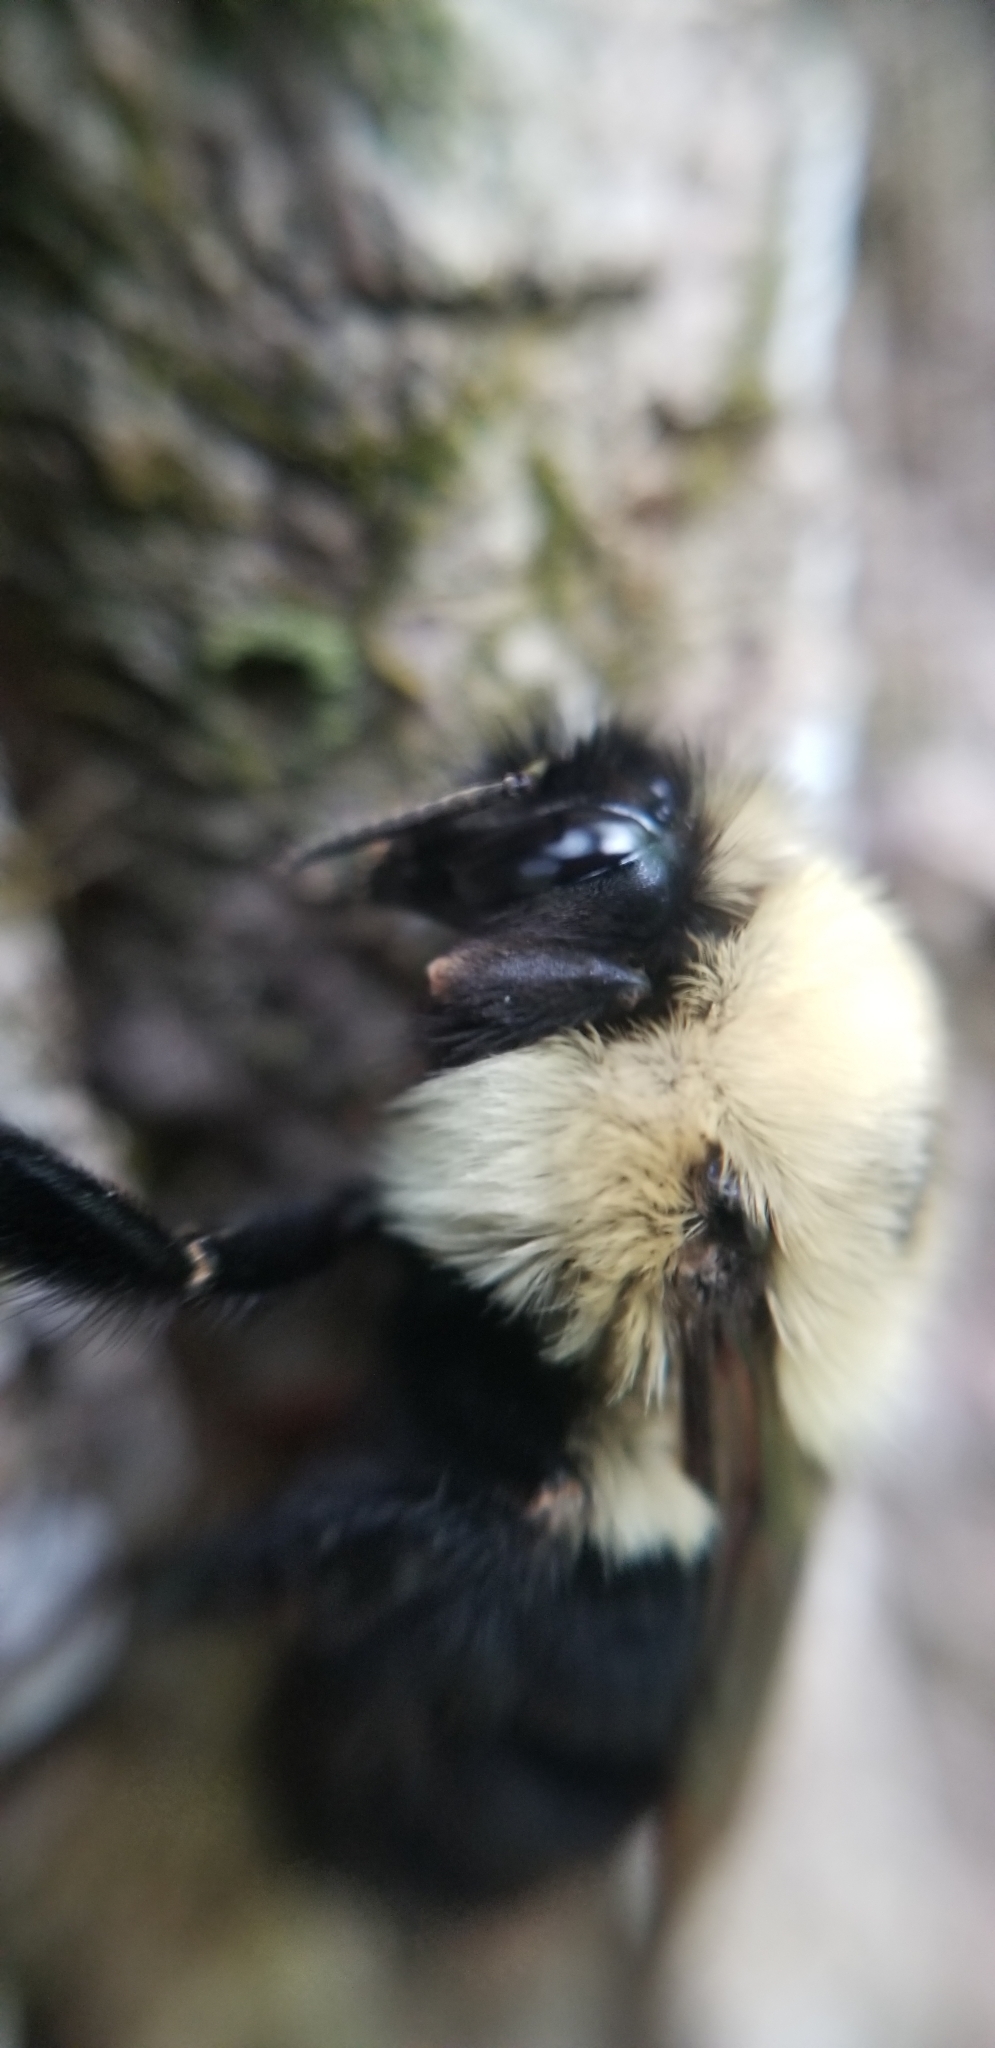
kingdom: Animalia
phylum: Arthropoda
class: Insecta
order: Hymenoptera
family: Apidae
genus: Bombus
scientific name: Bombus bimaculatus
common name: Two-spotted bumble bee
